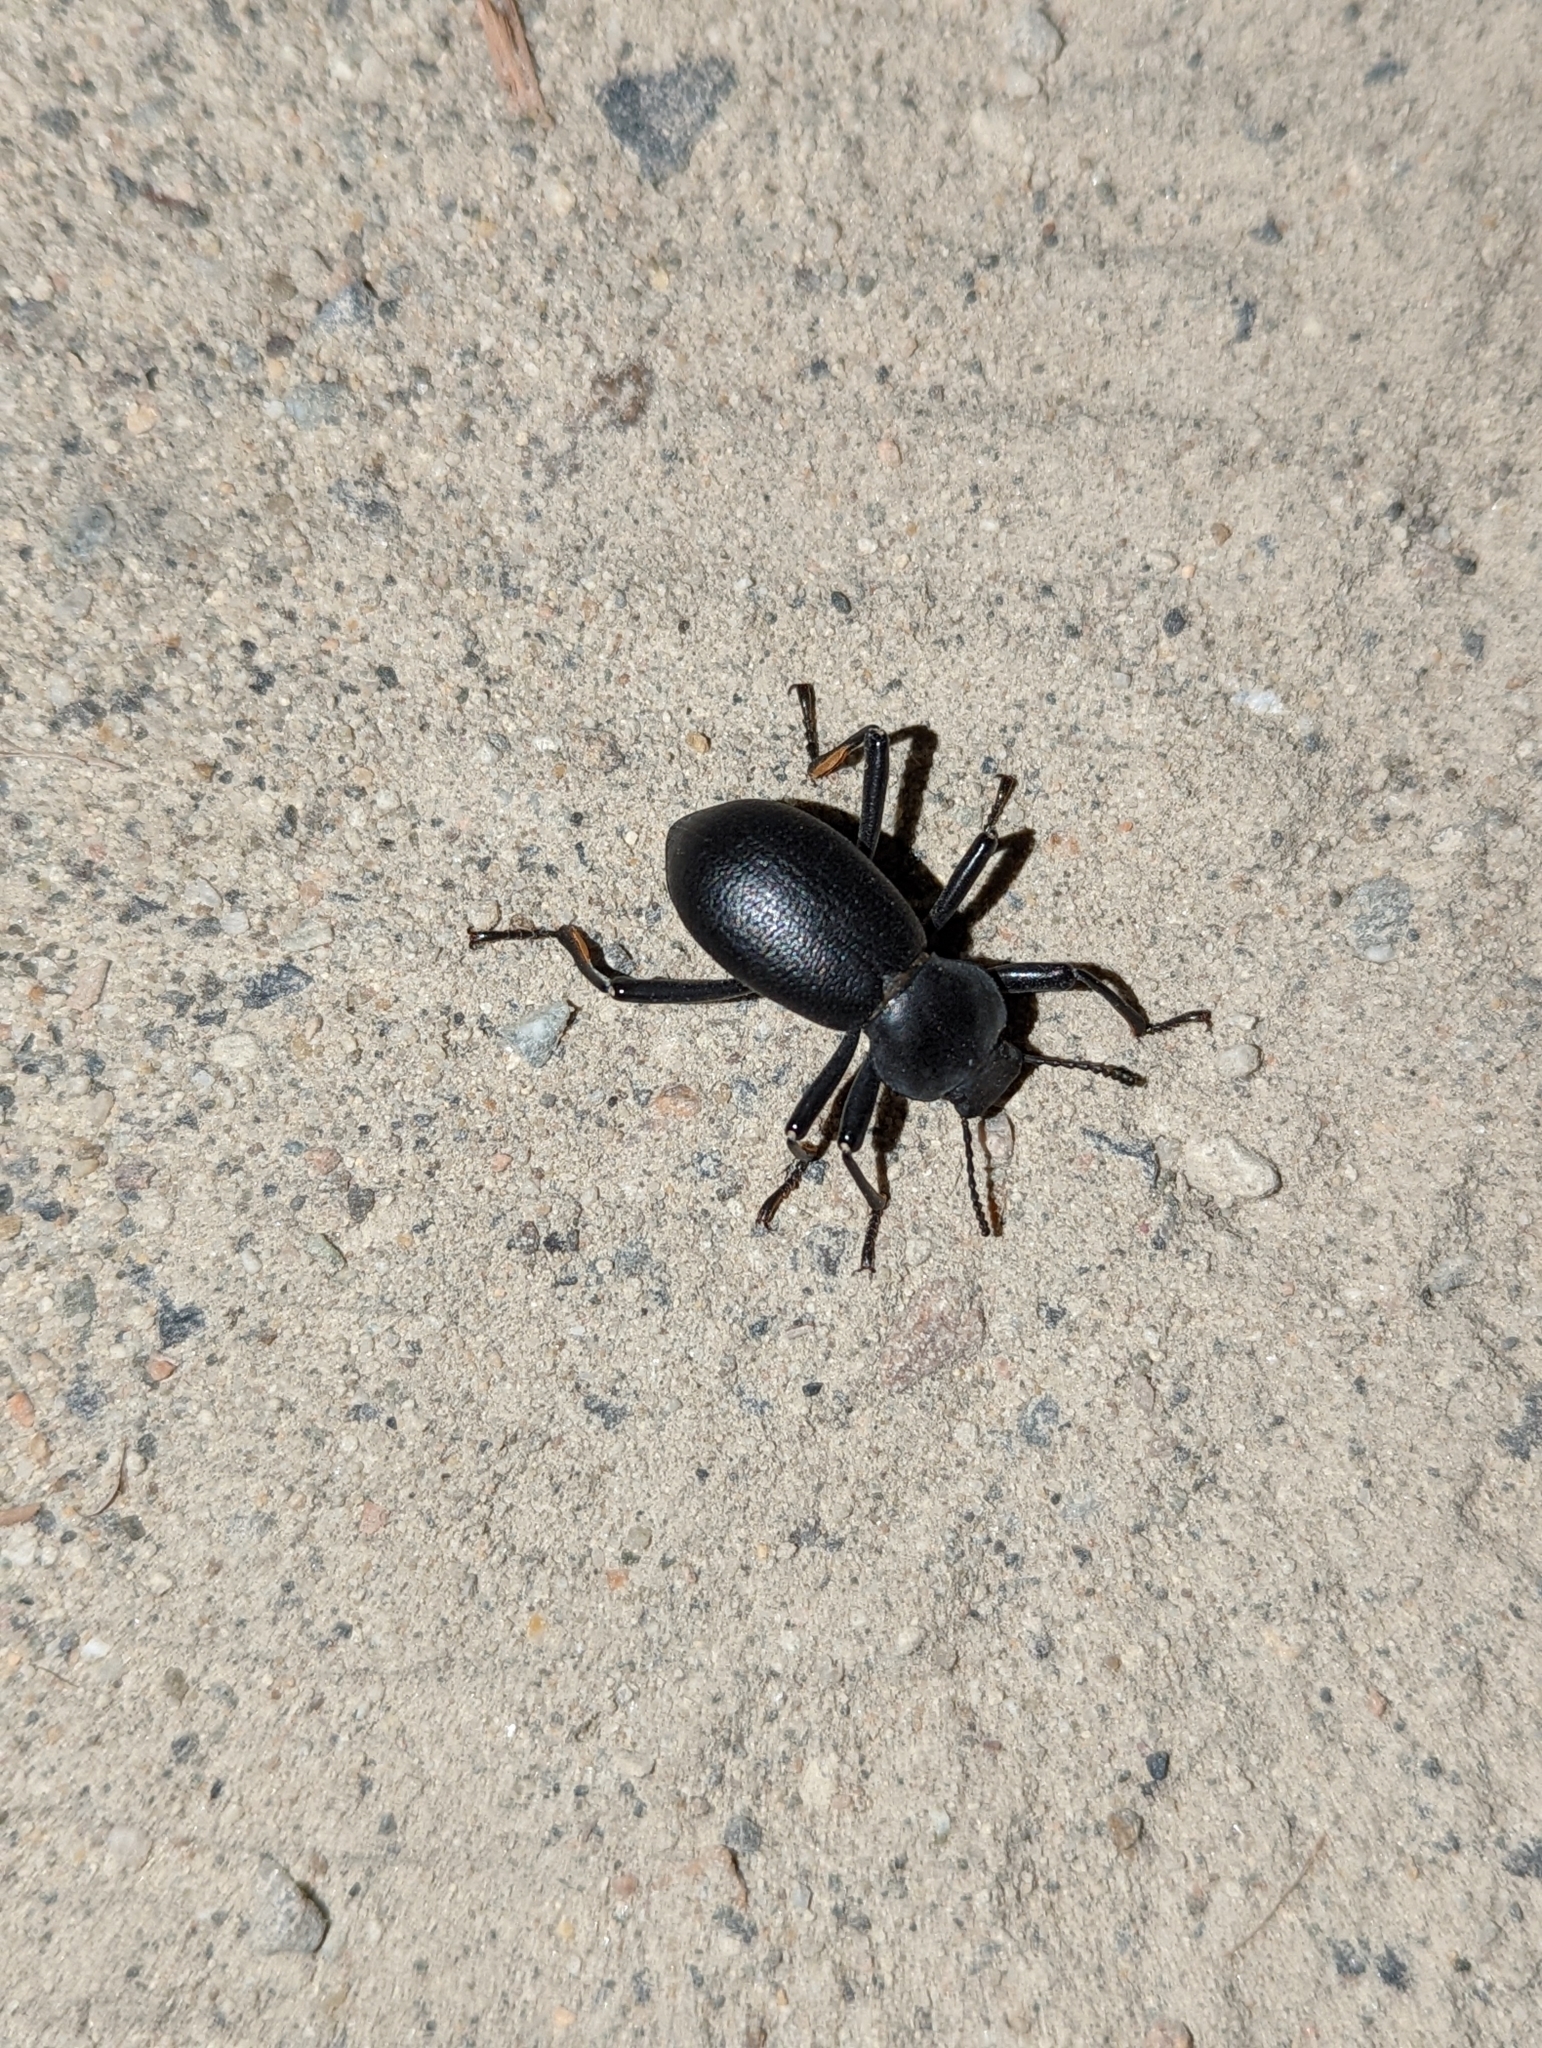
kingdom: Animalia
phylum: Arthropoda
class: Insecta
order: Coleoptera
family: Tenebrionidae
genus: Coelocnemis
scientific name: Coelocnemis dilaticollis
